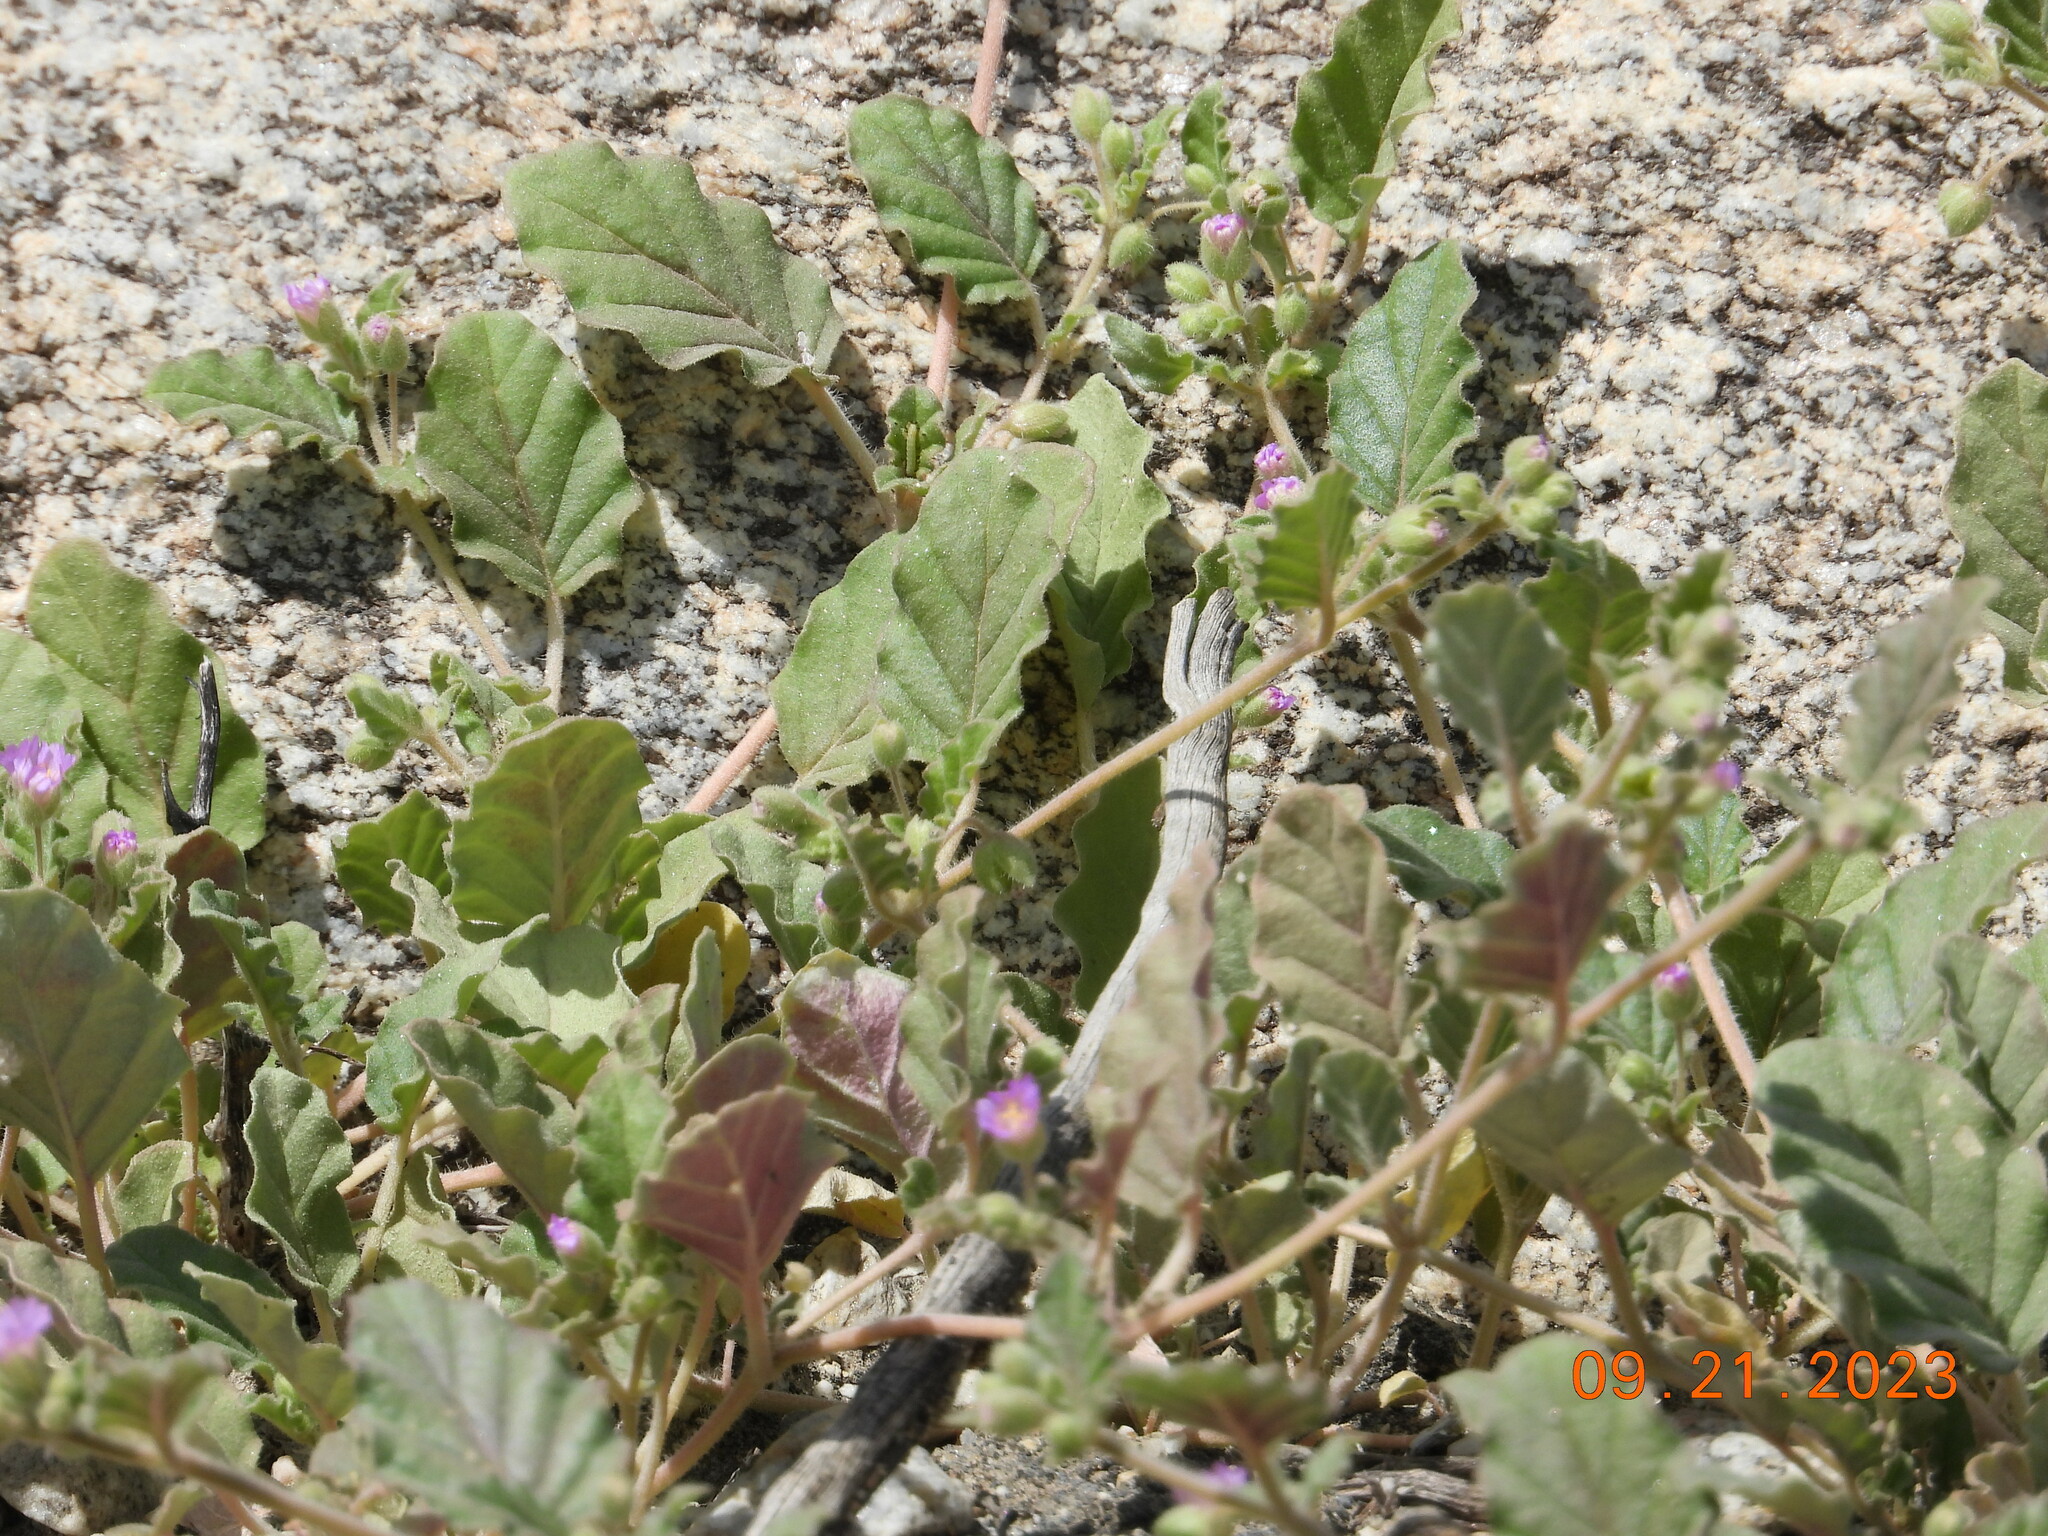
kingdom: Plantae
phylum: Tracheophyta
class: Magnoliopsida
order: Caryophyllales
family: Nyctaginaceae
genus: Allionia
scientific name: Allionia incarnata
